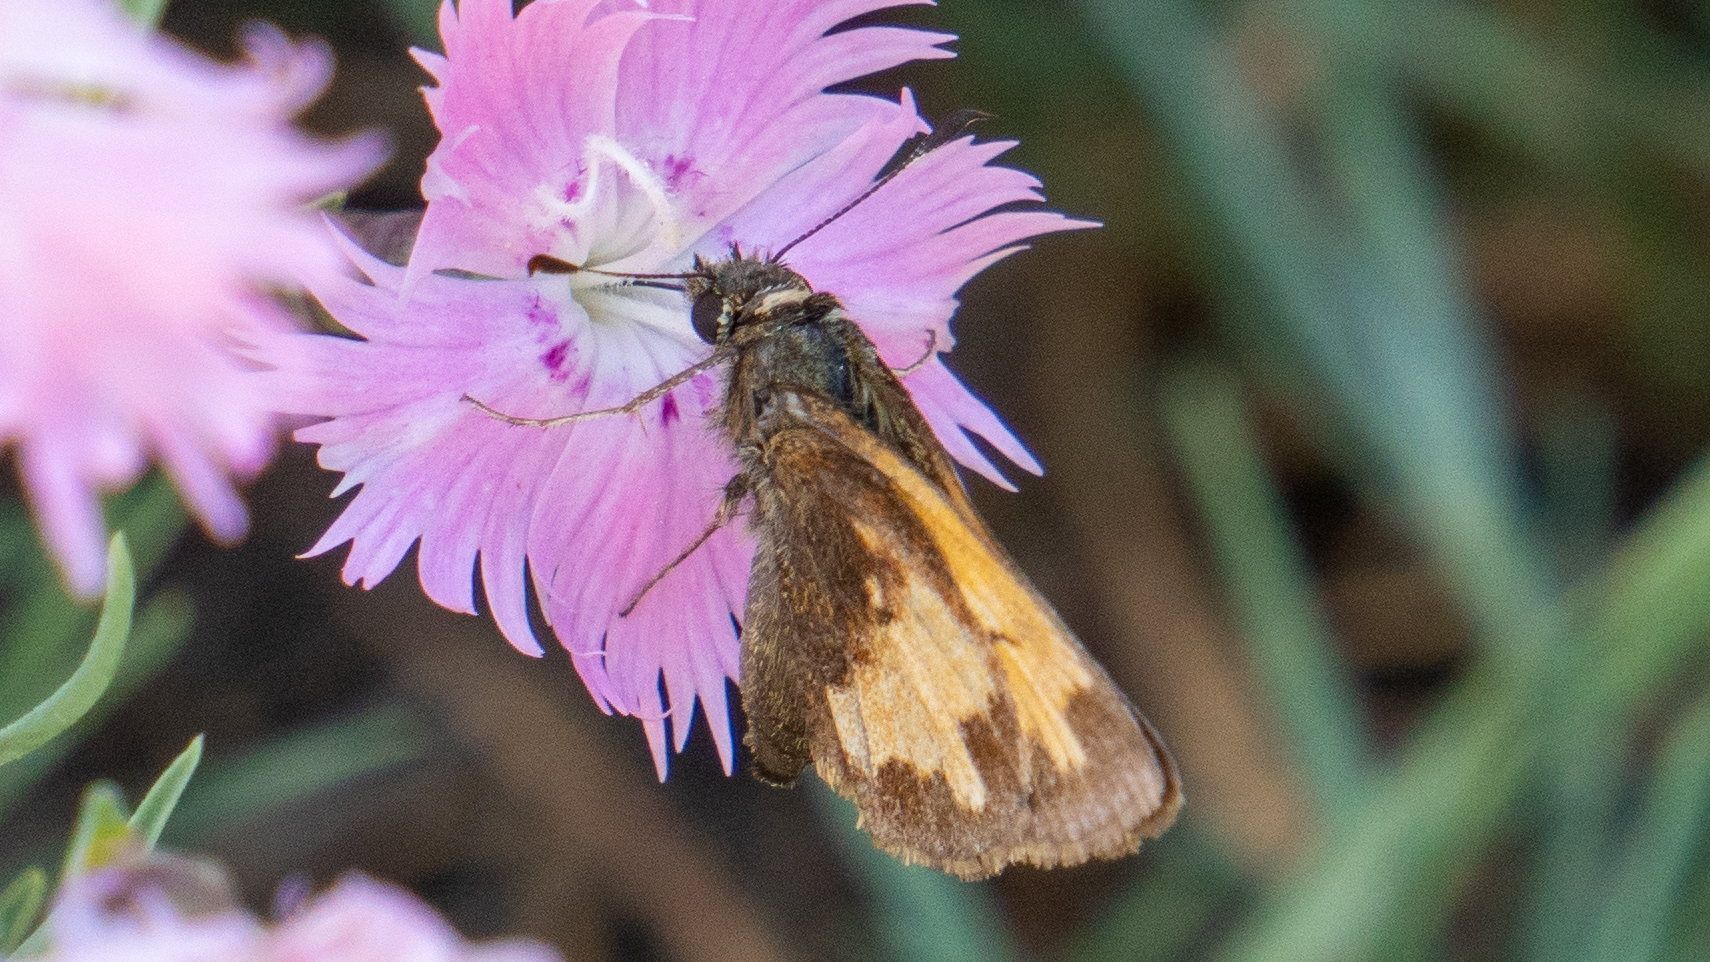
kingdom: Animalia
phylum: Arthropoda
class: Insecta
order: Lepidoptera
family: Hesperiidae
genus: Lon
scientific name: Lon hobomok
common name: Hobomok skipper
